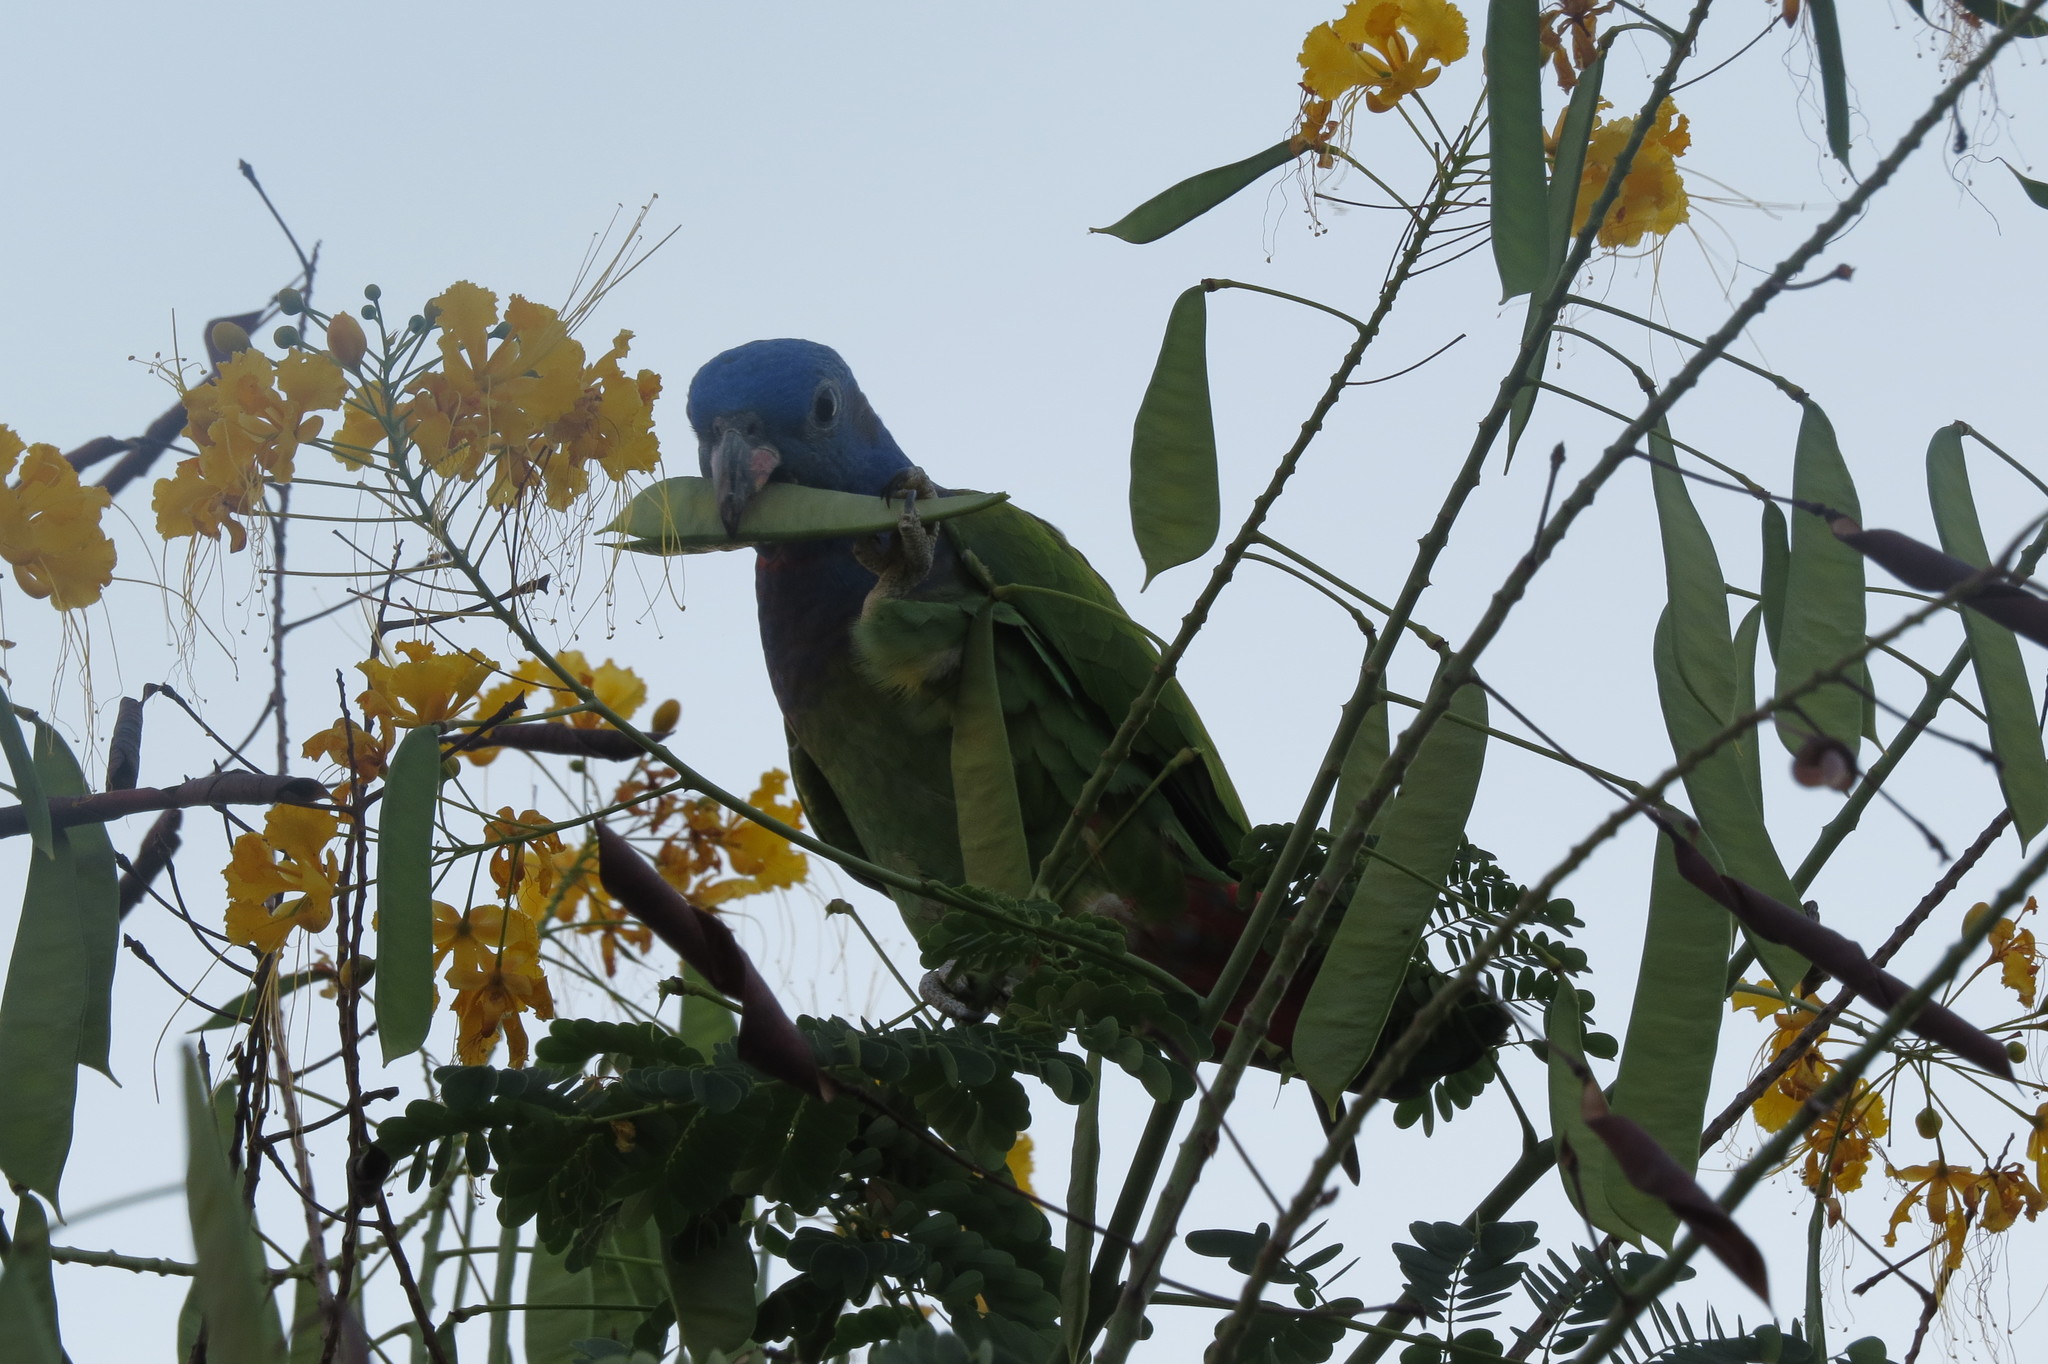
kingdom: Animalia
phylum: Chordata
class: Aves
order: Psittaciformes
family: Psittacidae
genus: Pionus
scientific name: Pionus menstruus
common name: Blue-headed parrot
